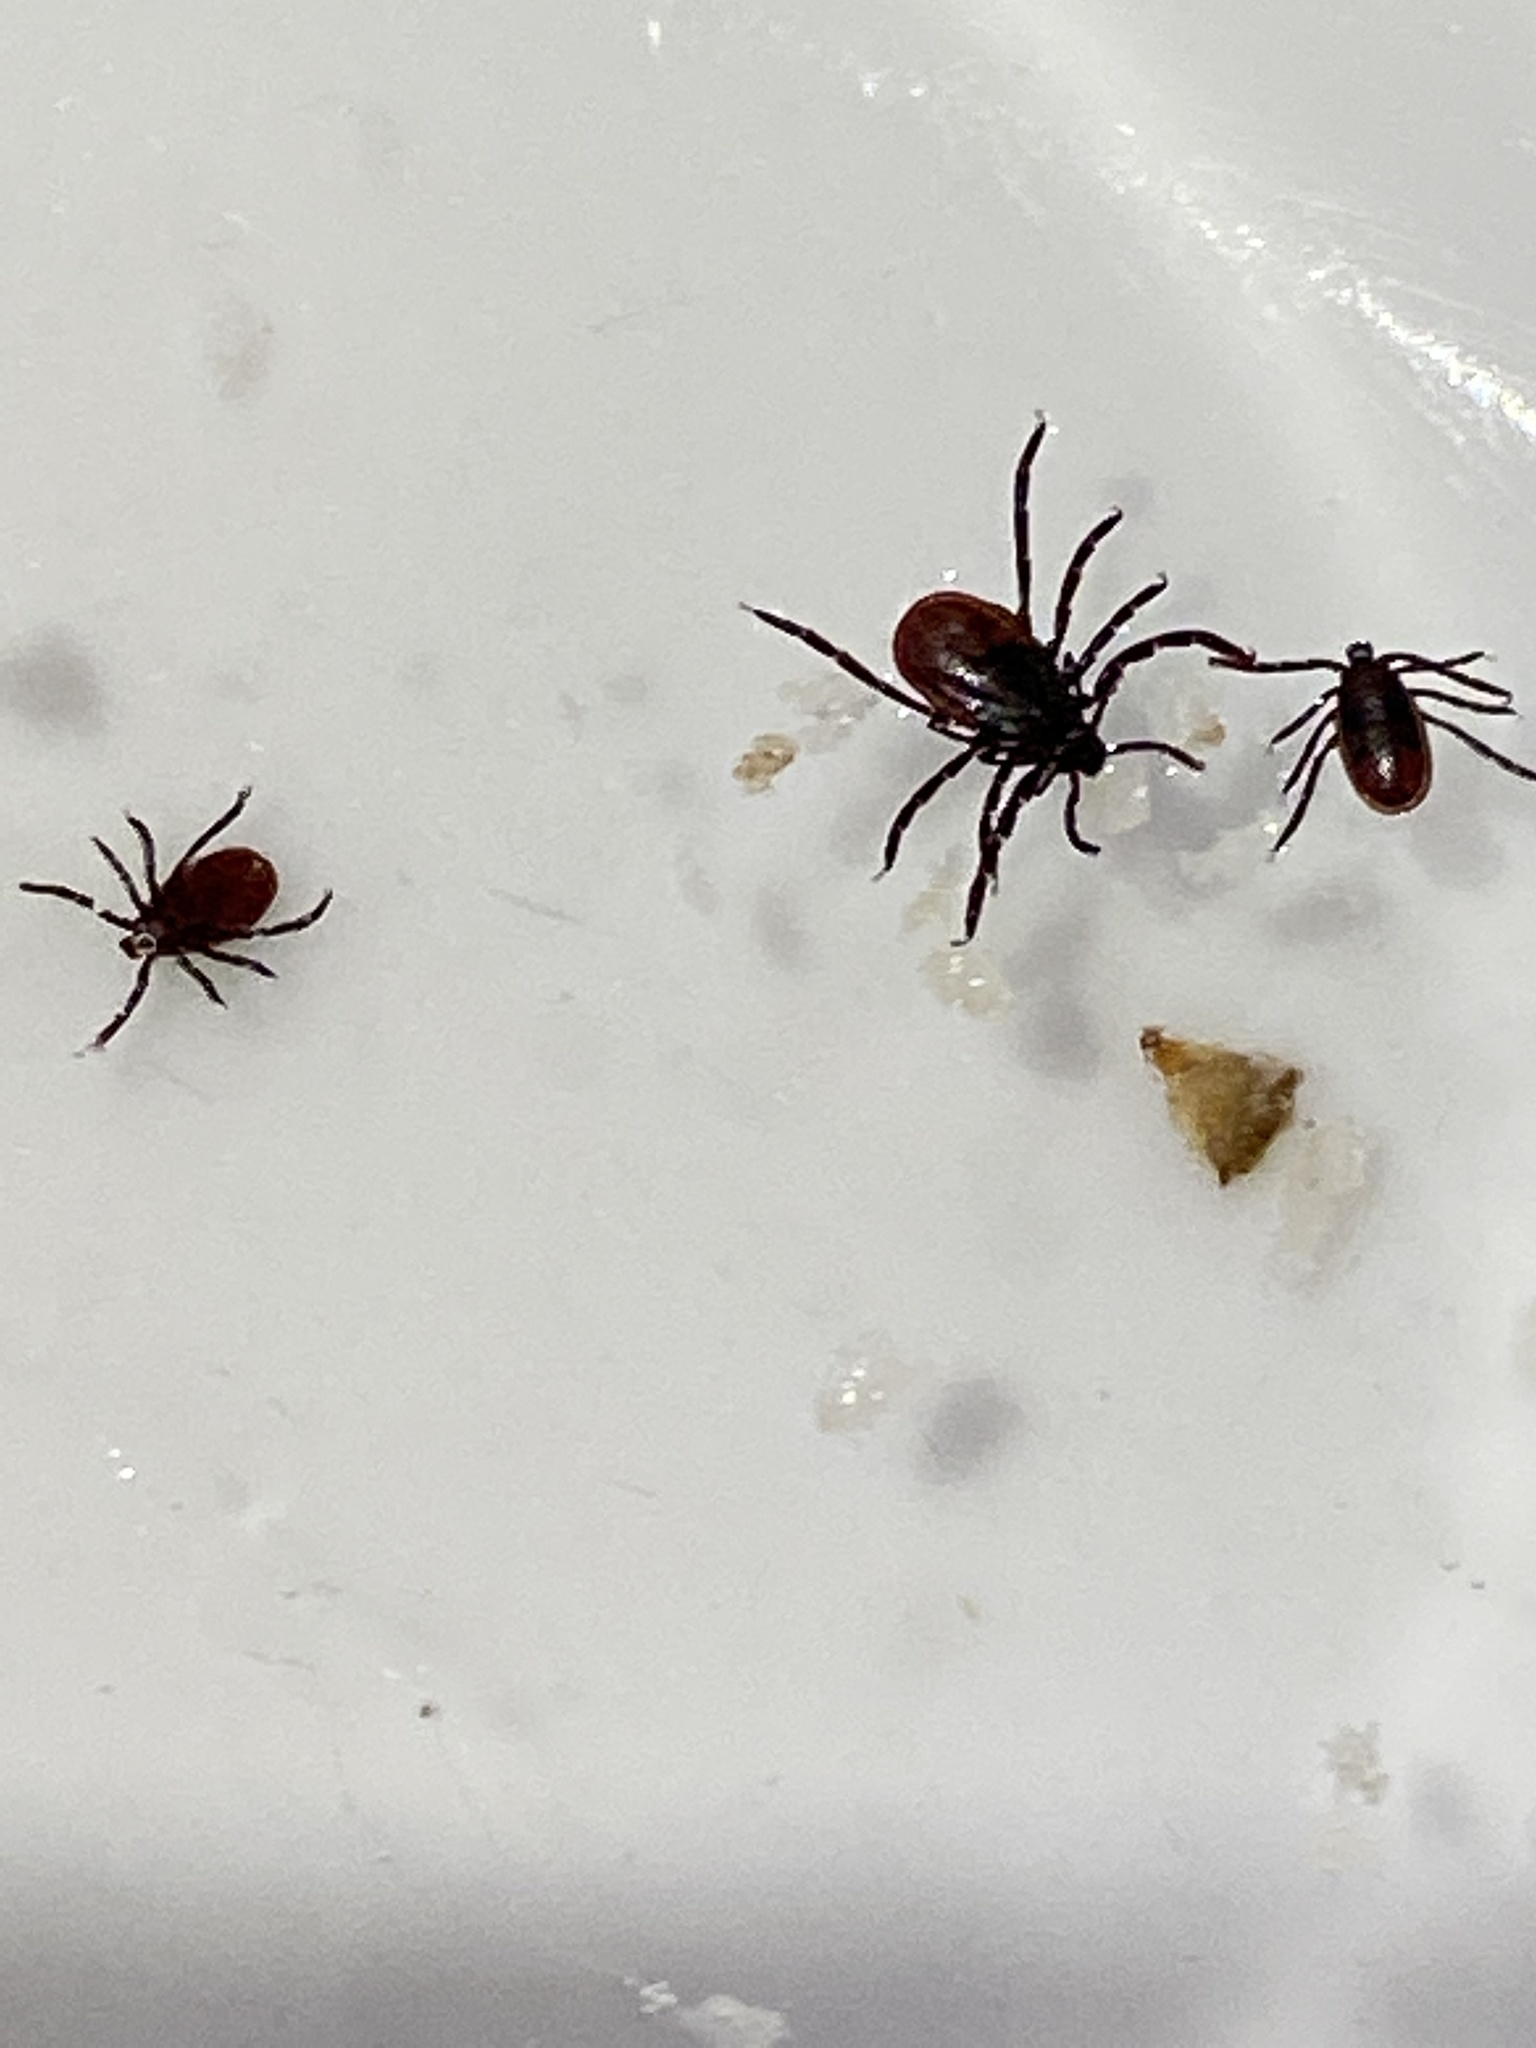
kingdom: Animalia
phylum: Arthropoda
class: Arachnida
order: Ixodida
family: Ixodidae
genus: Ixodes
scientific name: Ixodes pacificus
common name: California black-legged tick
